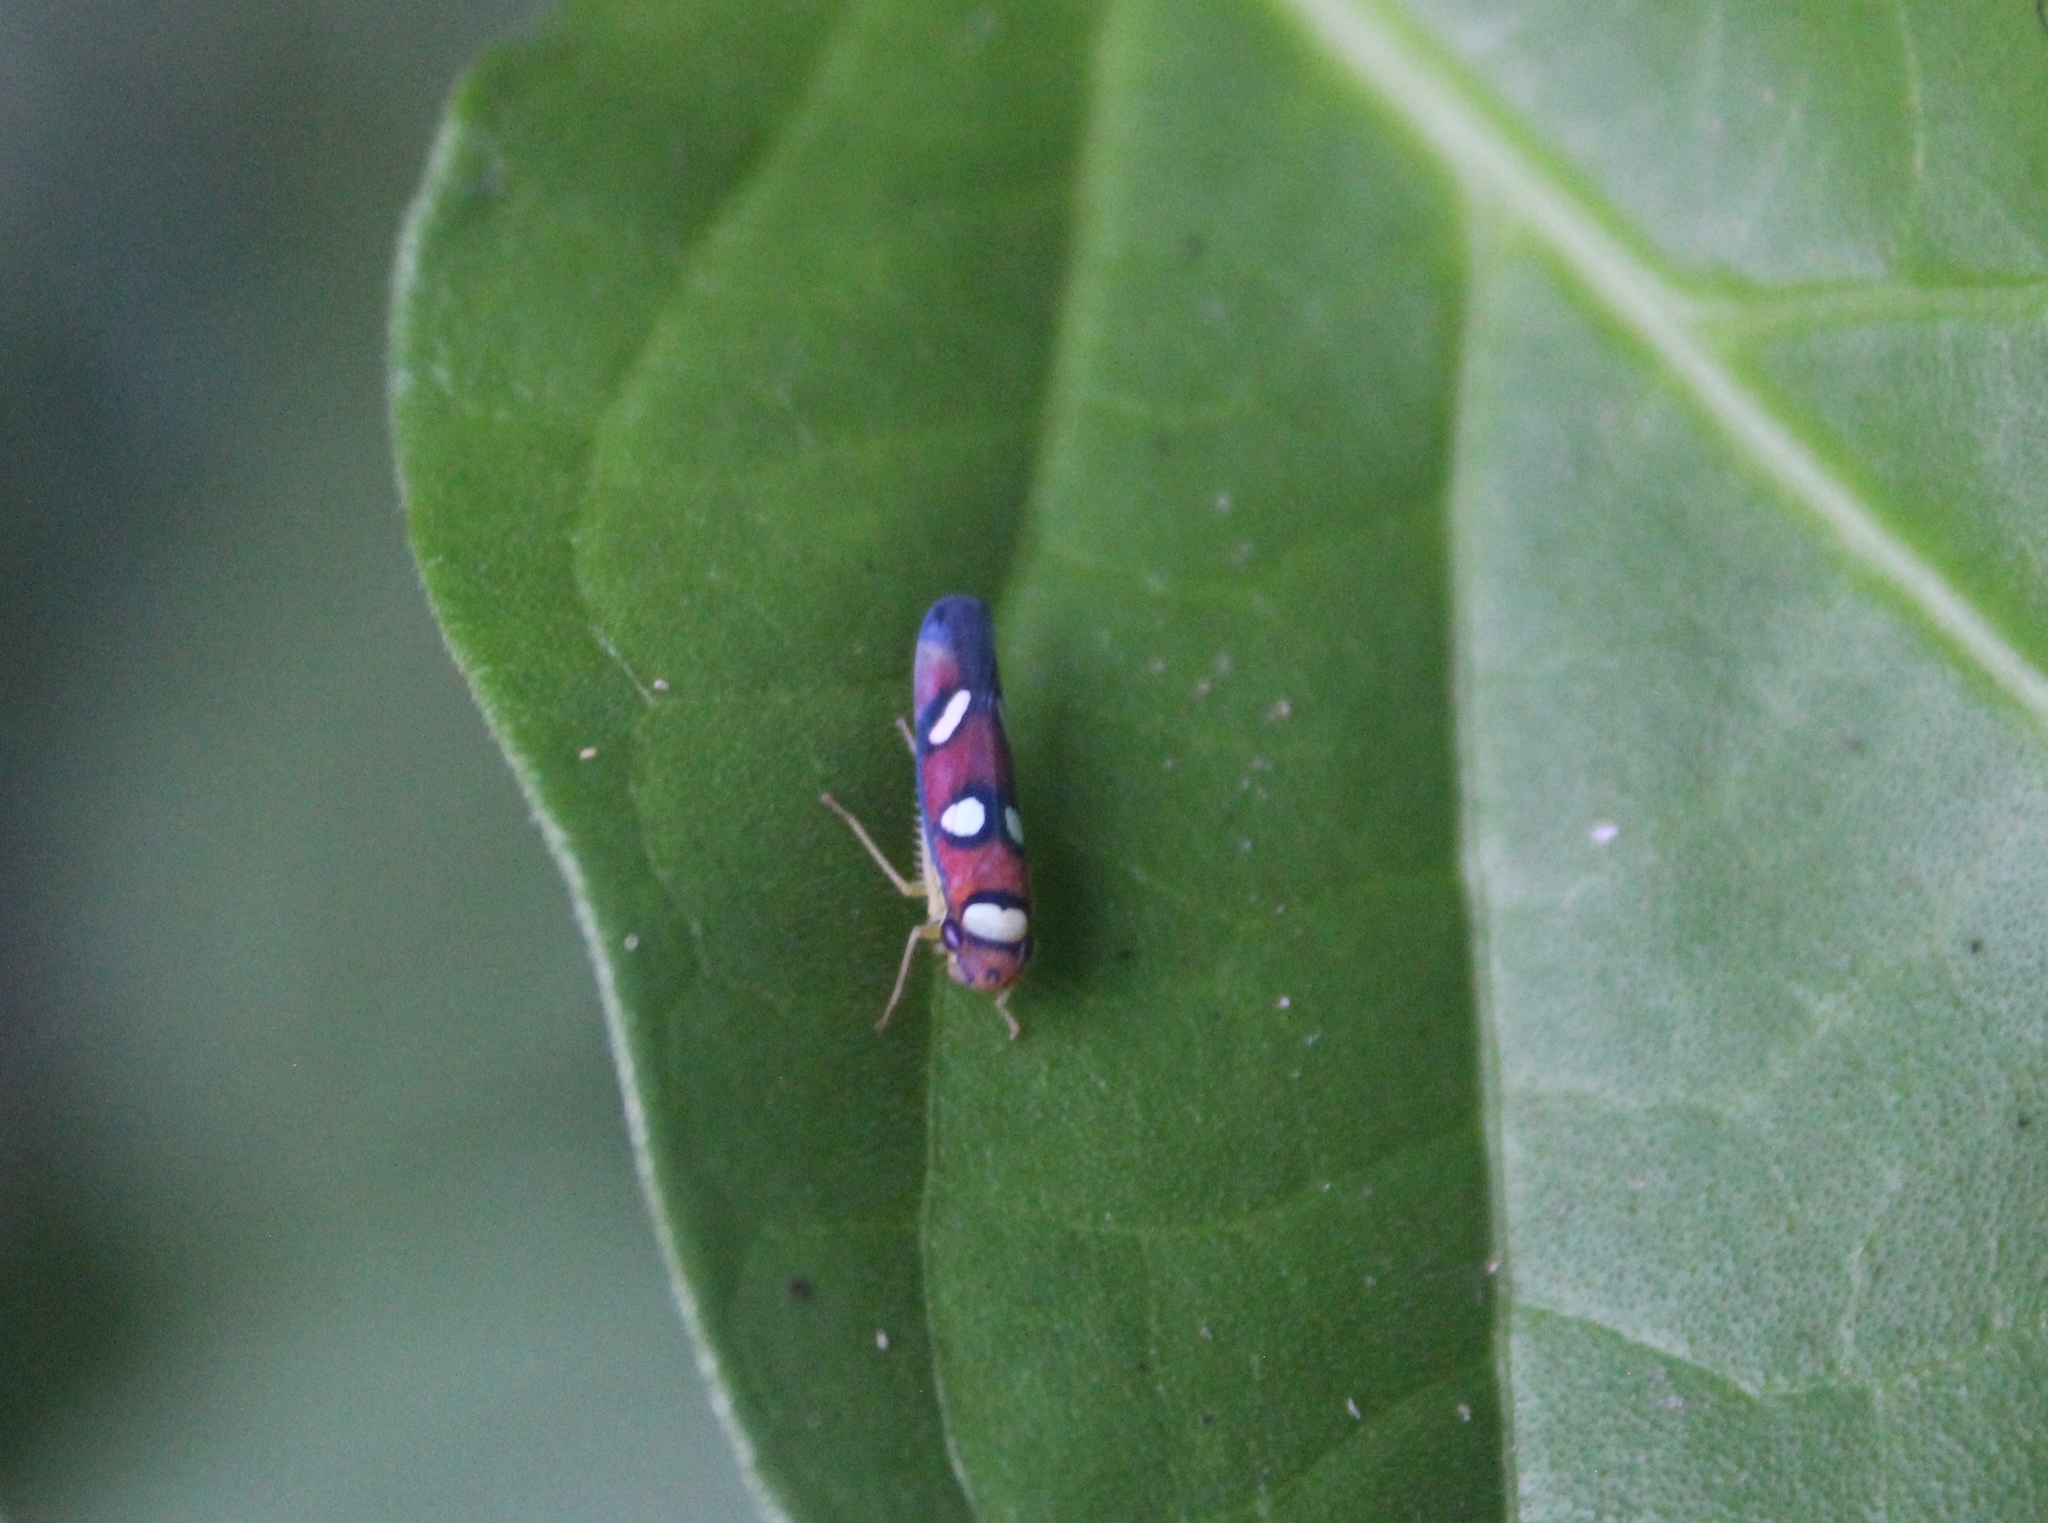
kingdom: Animalia
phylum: Arthropoda
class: Insecta
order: Hemiptera
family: Cicadellidae
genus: Erythrogonia
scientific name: Erythrogonia areolata
